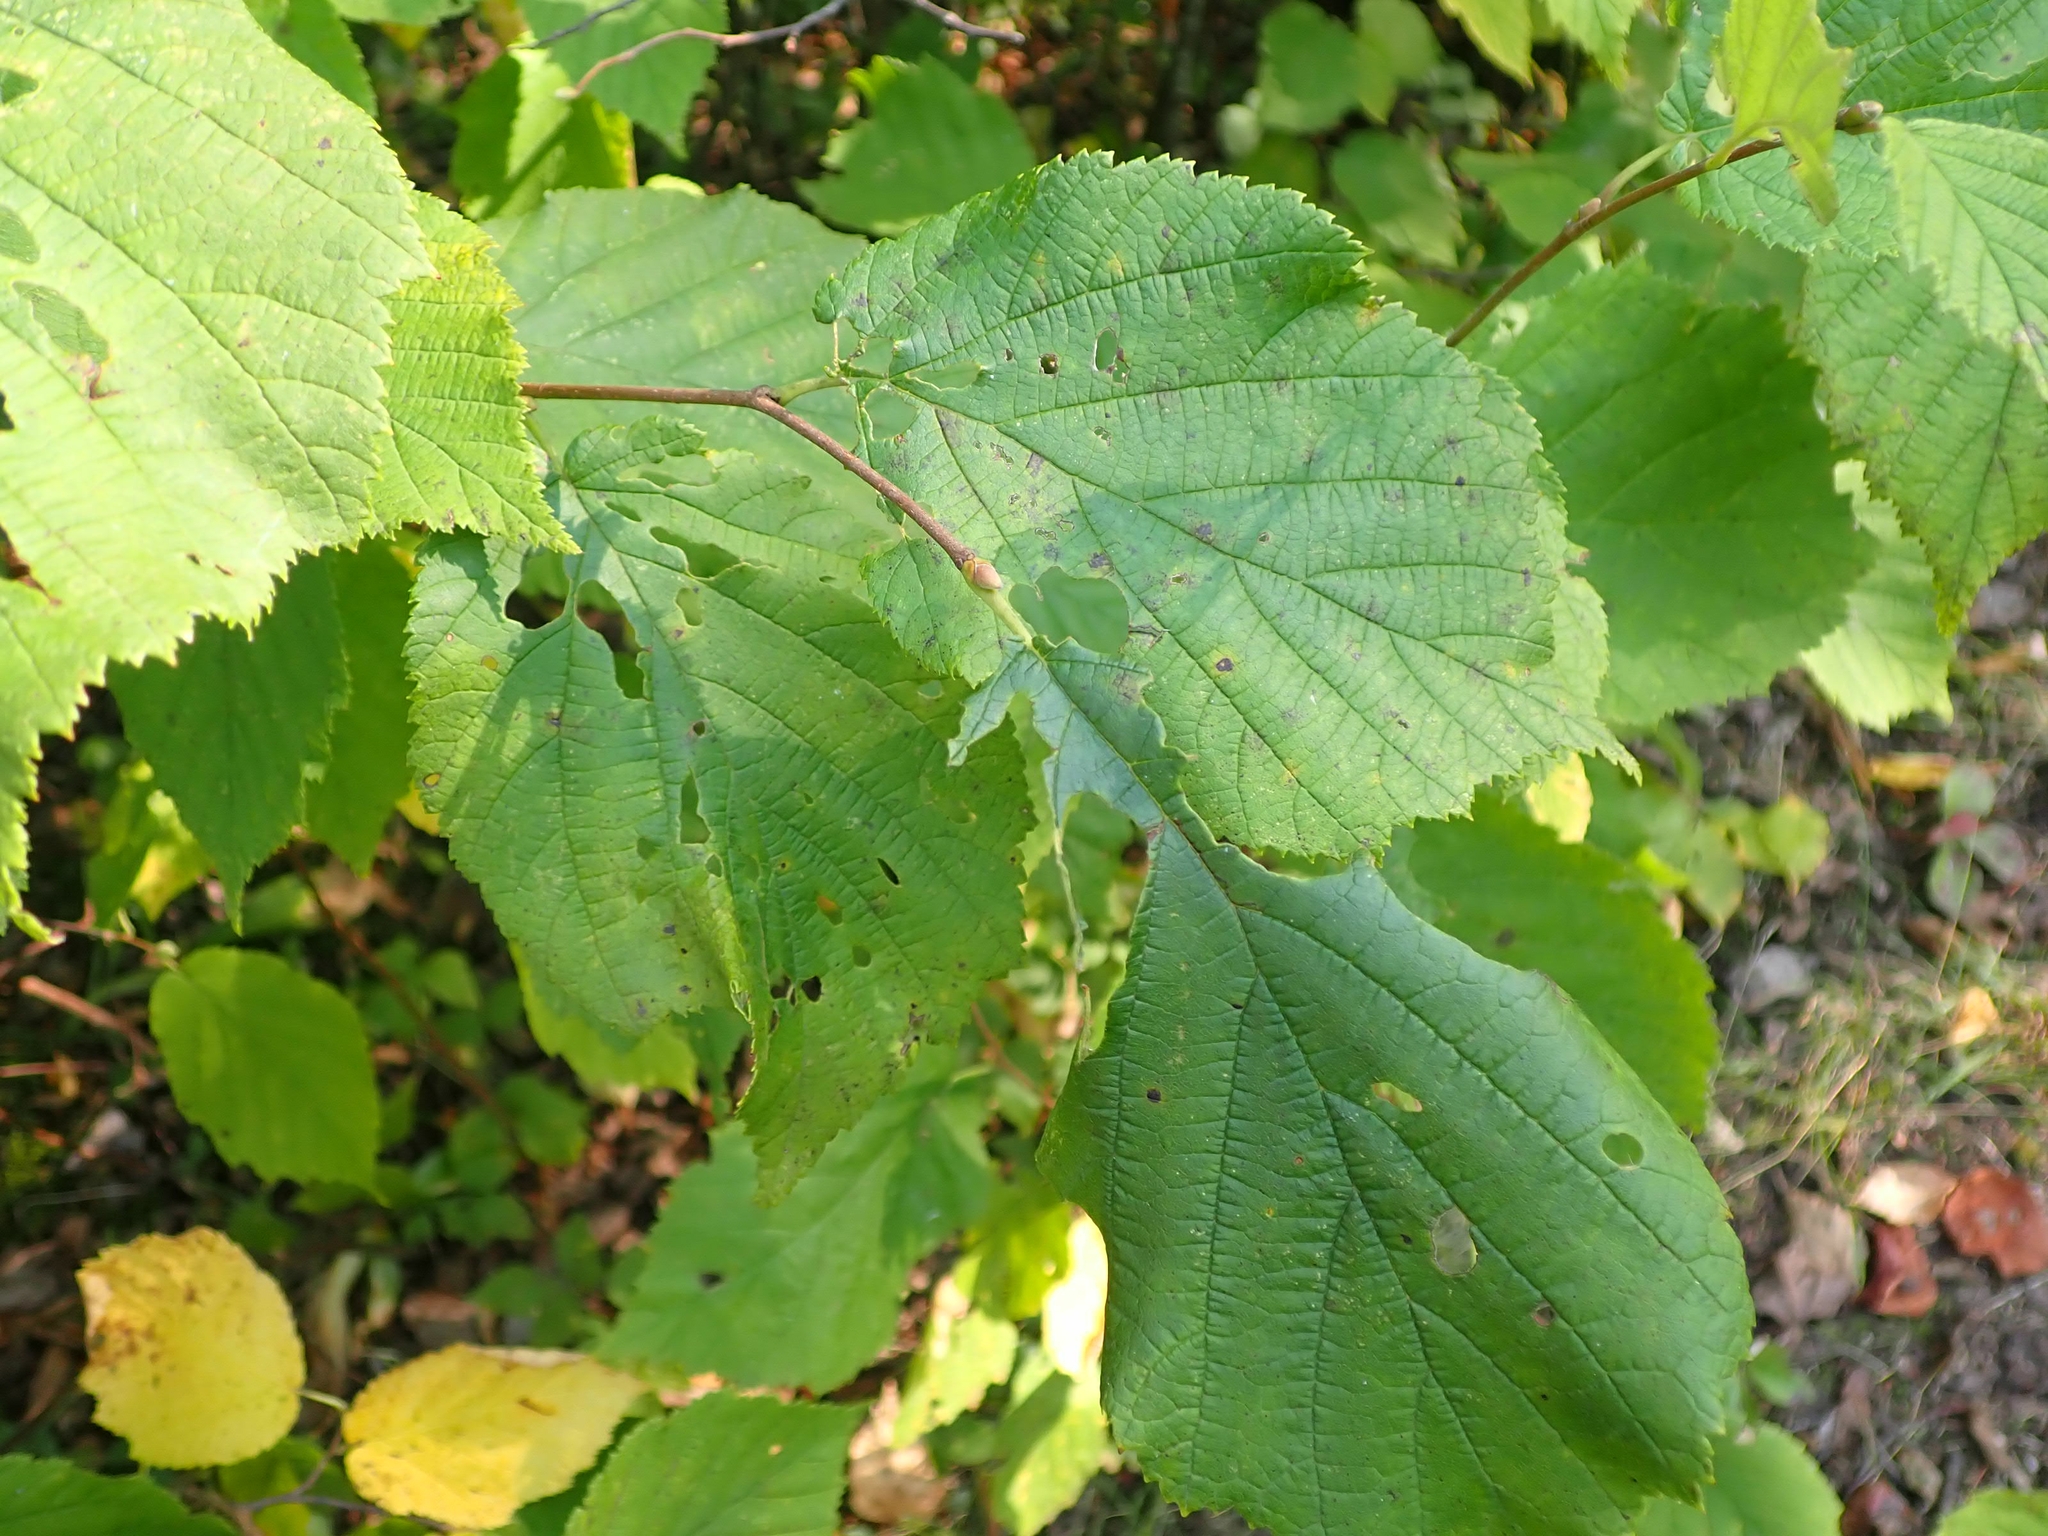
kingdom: Plantae
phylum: Tracheophyta
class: Magnoliopsida
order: Fagales
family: Betulaceae
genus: Corylus
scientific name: Corylus cornuta
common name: Beaked hazel
